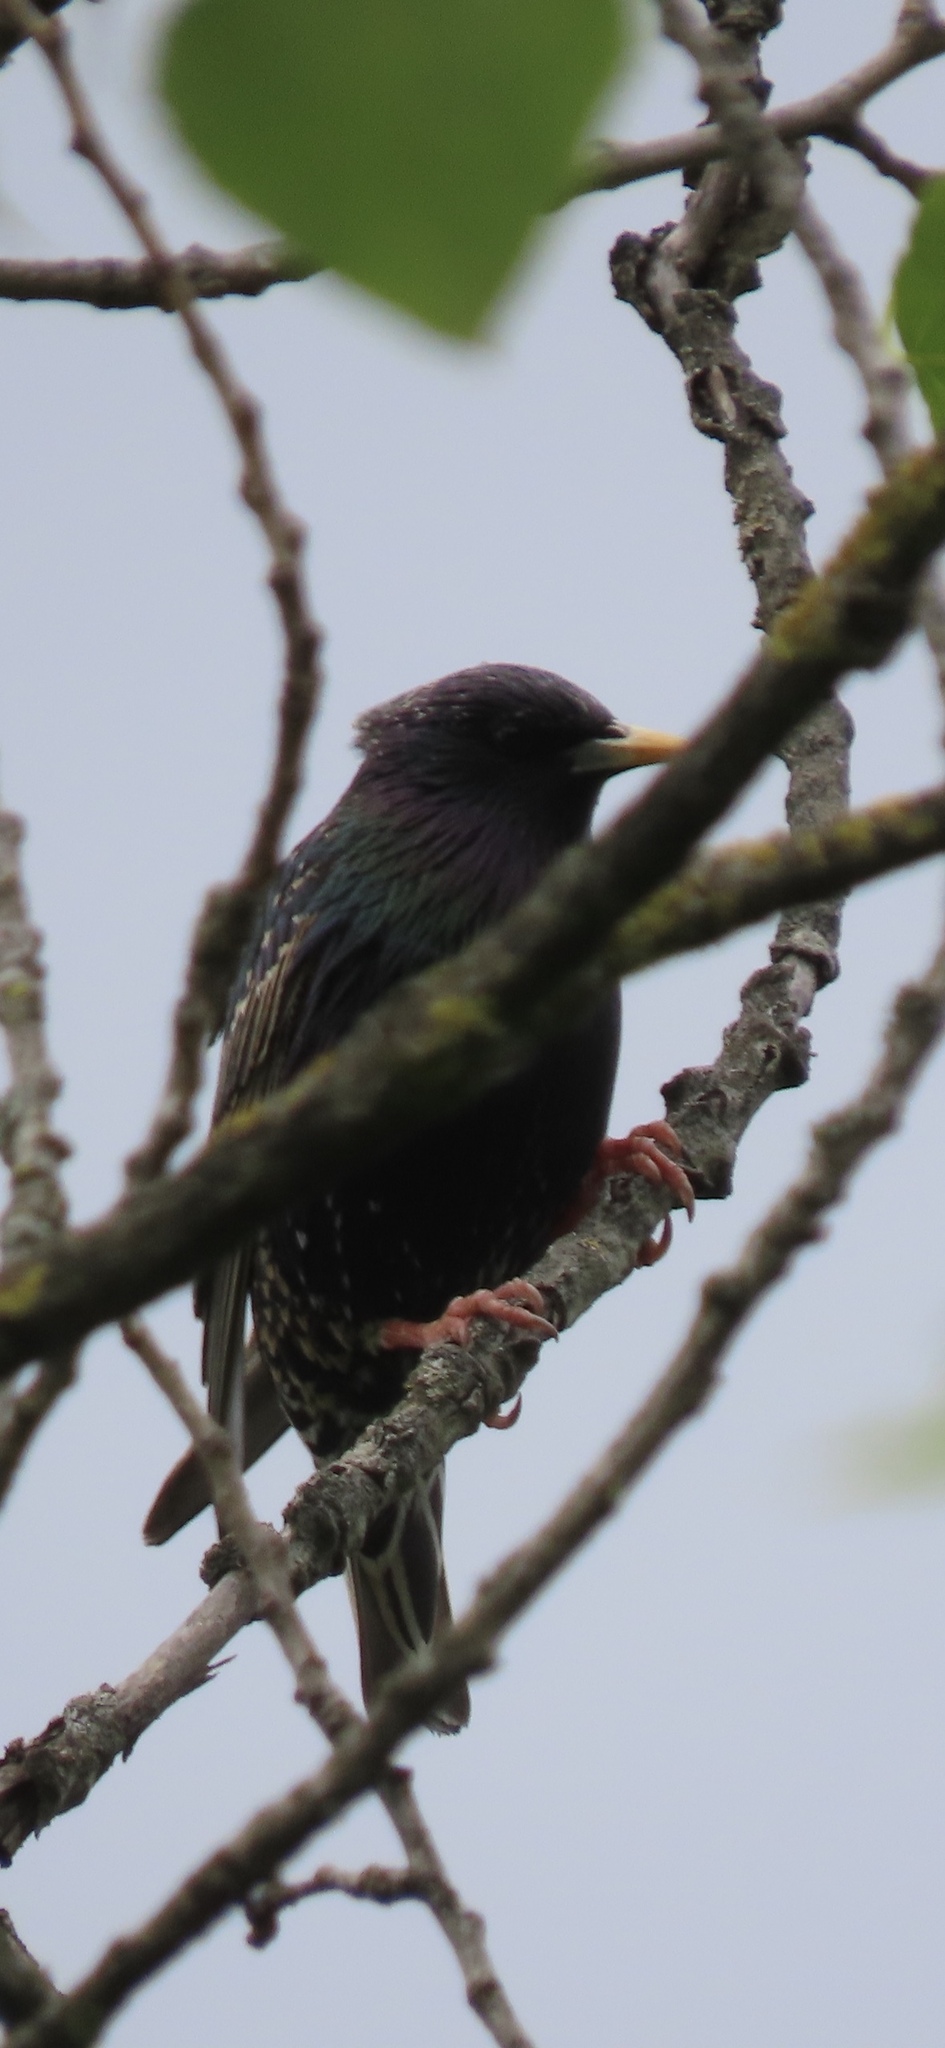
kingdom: Animalia
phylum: Chordata
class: Aves
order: Passeriformes
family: Sturnidae
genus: Sturnus
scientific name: Sturnus vulgaris
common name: Common starling
